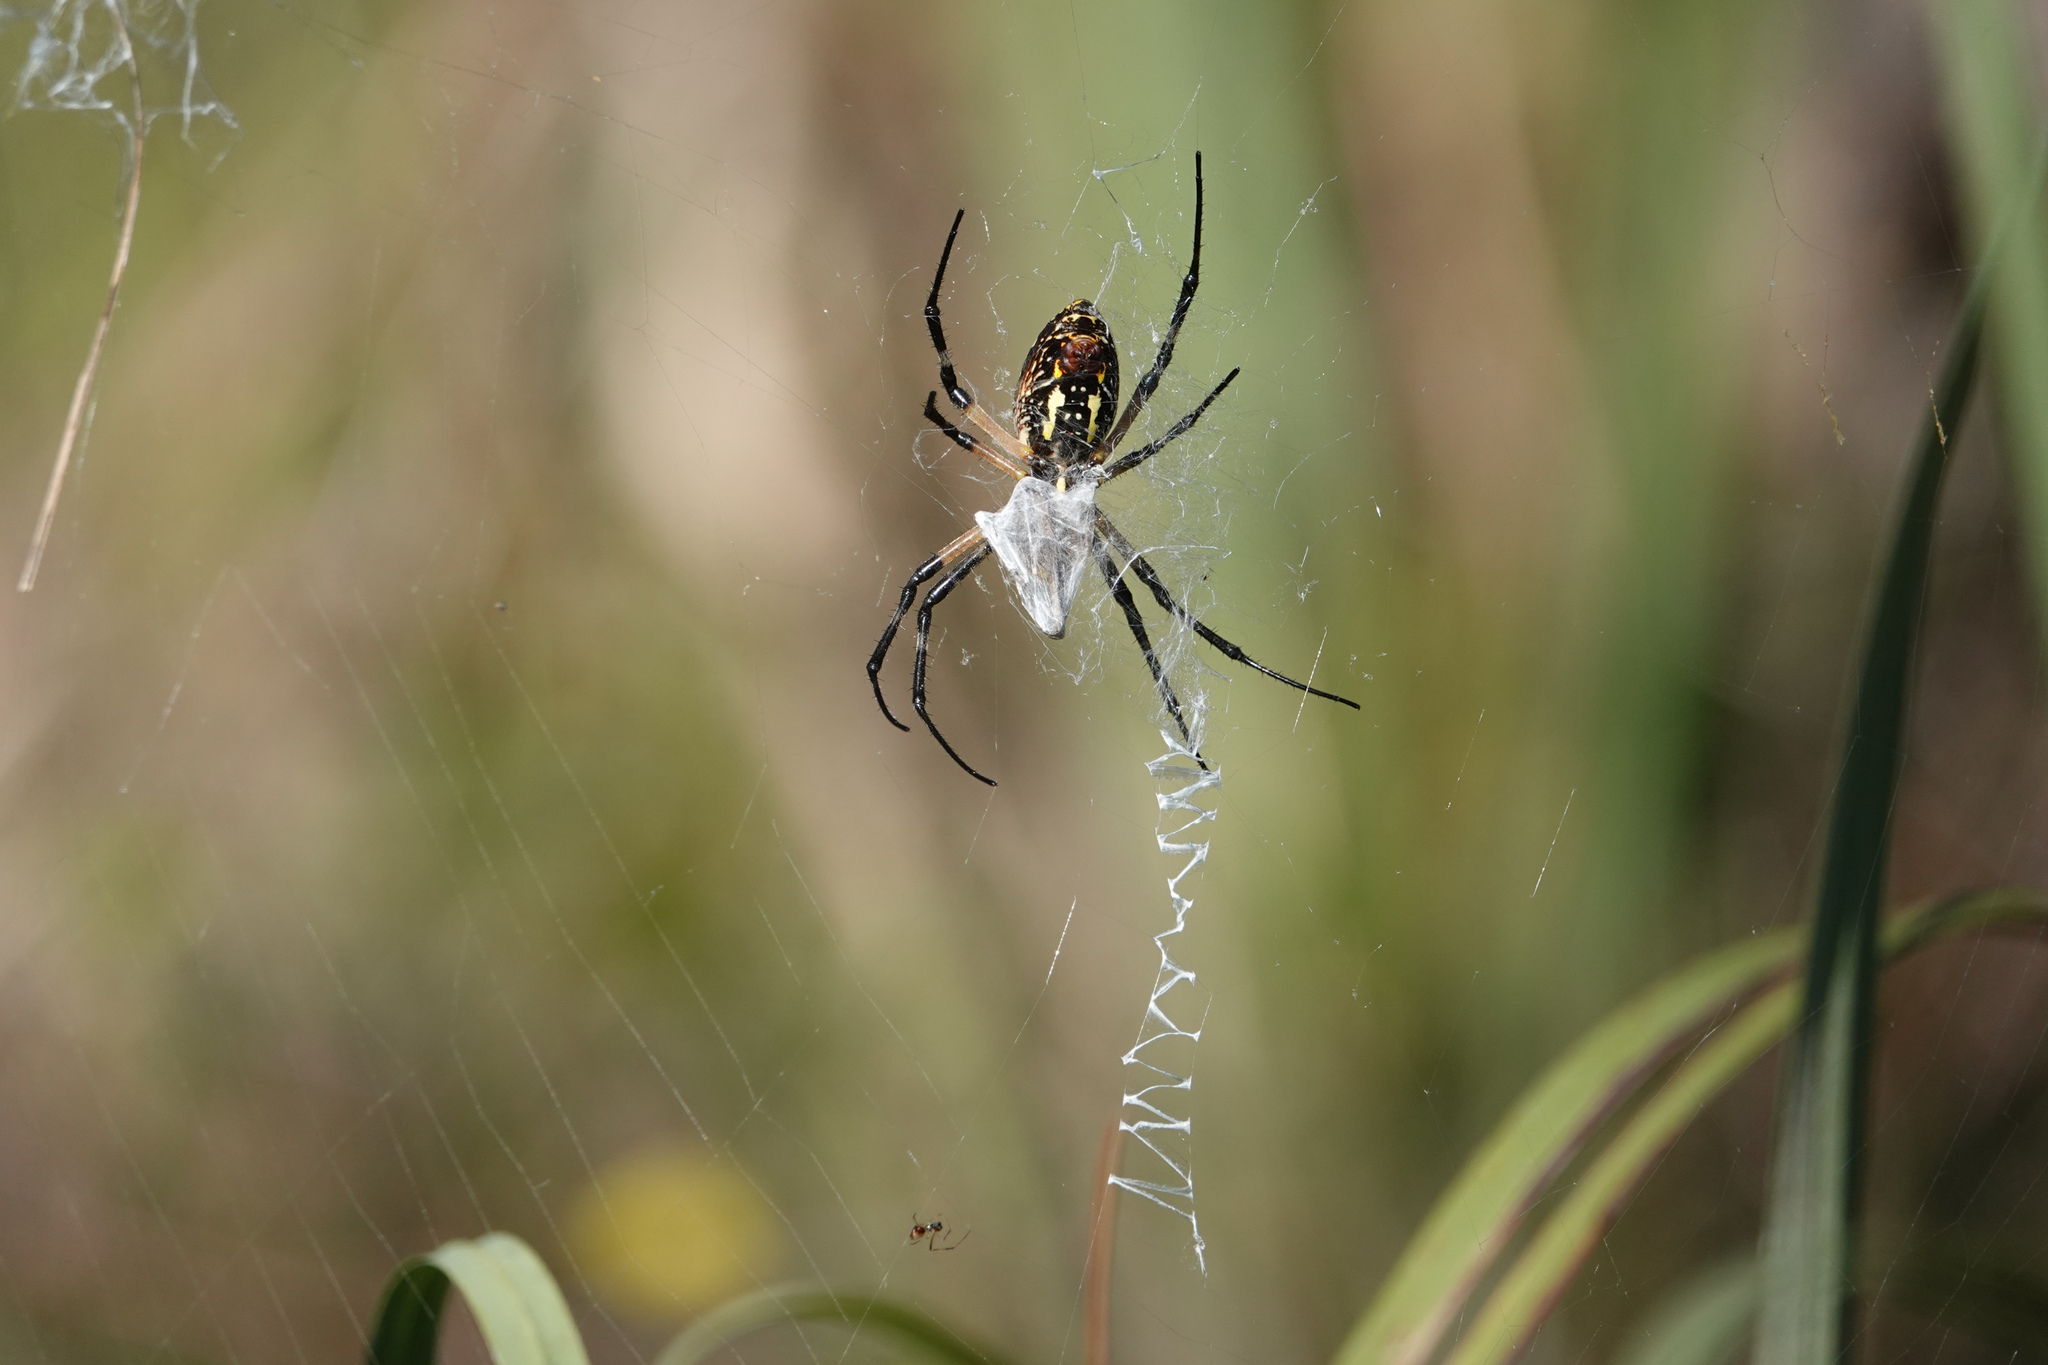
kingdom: Animalia
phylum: Arthropoda
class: Arachnida
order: Araneae
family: Araneidae
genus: Argiope
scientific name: Argiope aurantia
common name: Orb weavers
